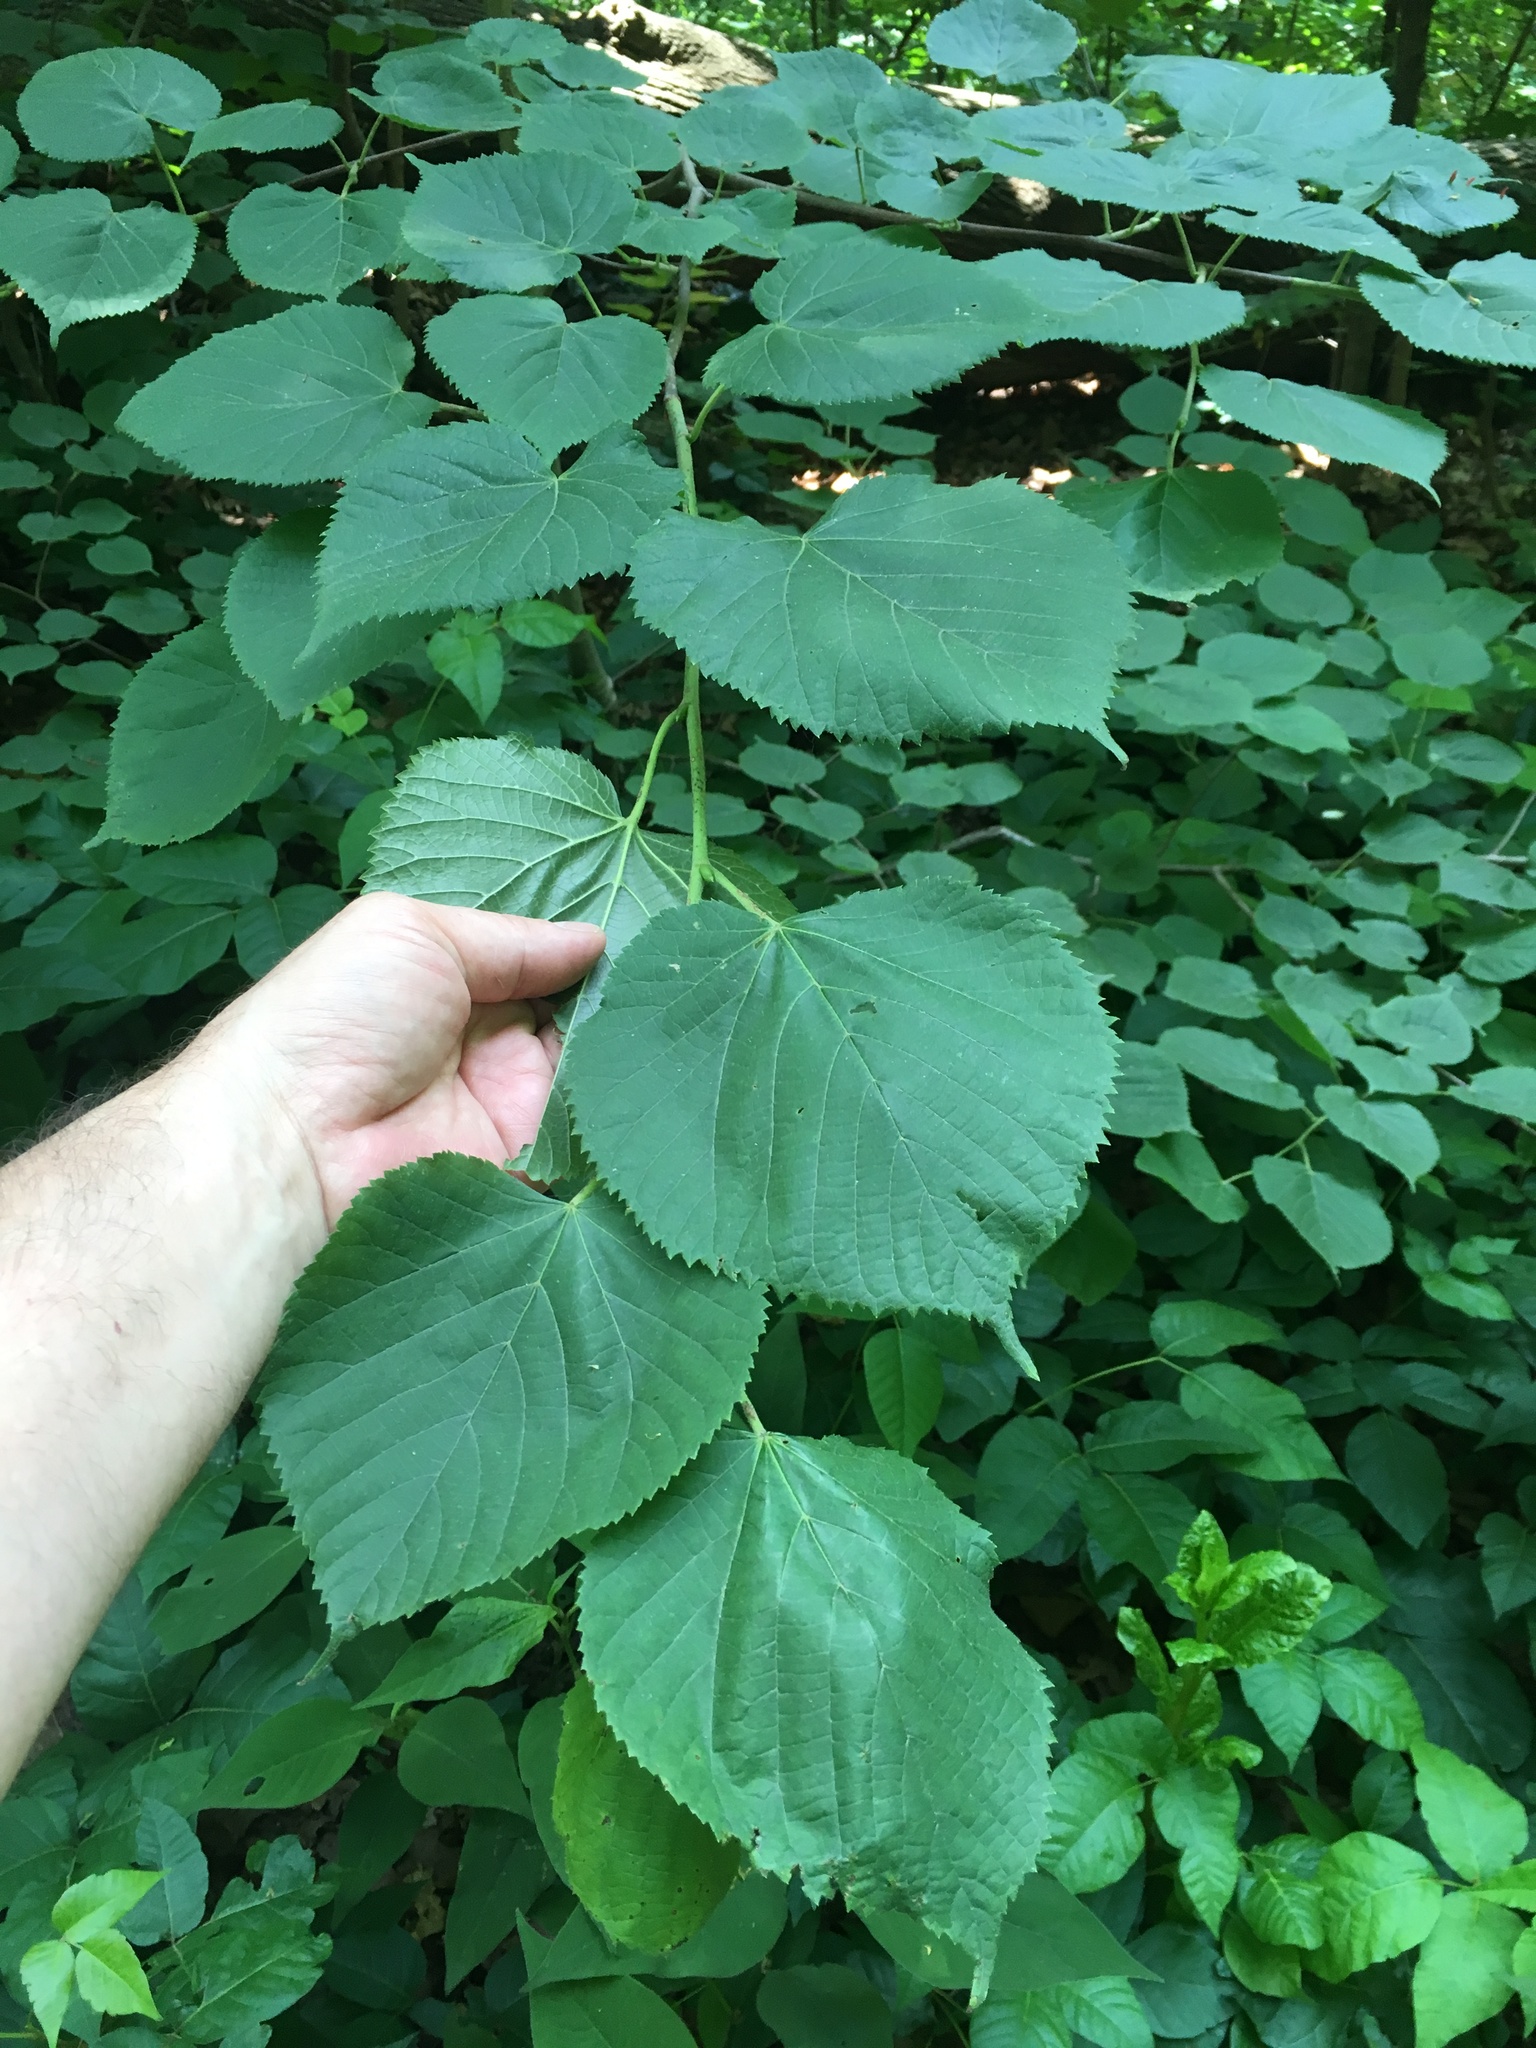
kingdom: Plantae
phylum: Tracheophyta
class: Magnoliopsida
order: Malvales
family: Malvaceae
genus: Tilia
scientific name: Tilia americana
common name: Basswood
